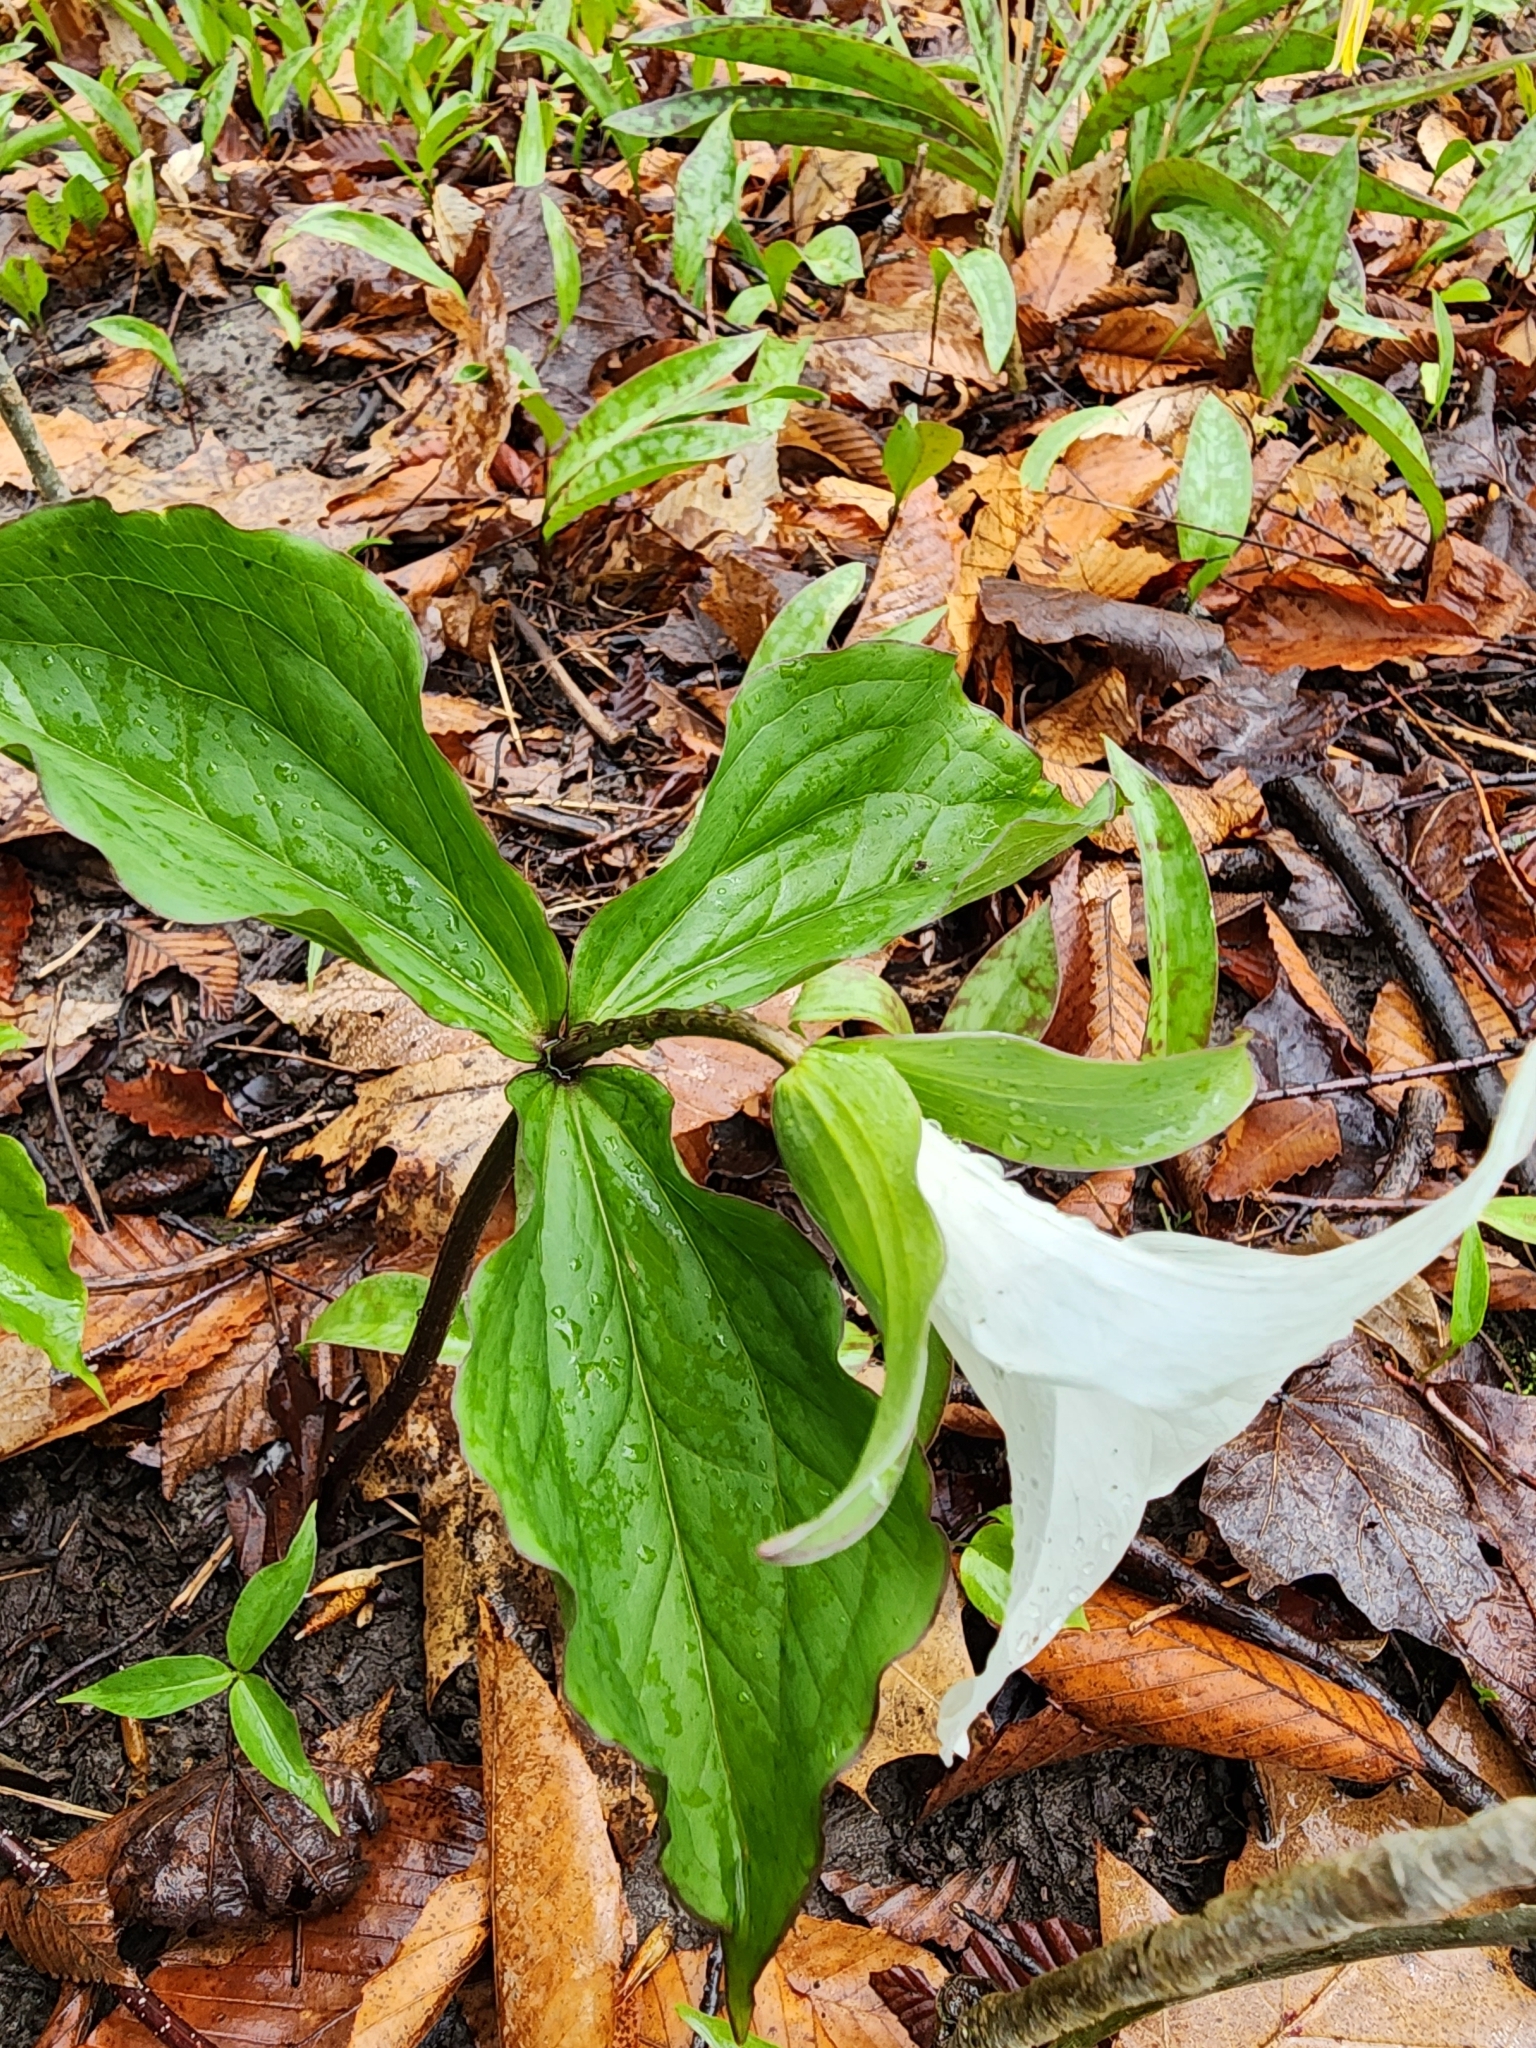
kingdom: Plantae
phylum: Tracheophyta
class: Liliopsida
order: Liliales
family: Melanthiaceae
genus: Trillium
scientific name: Trillium grandiflorum
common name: Great white trillium
